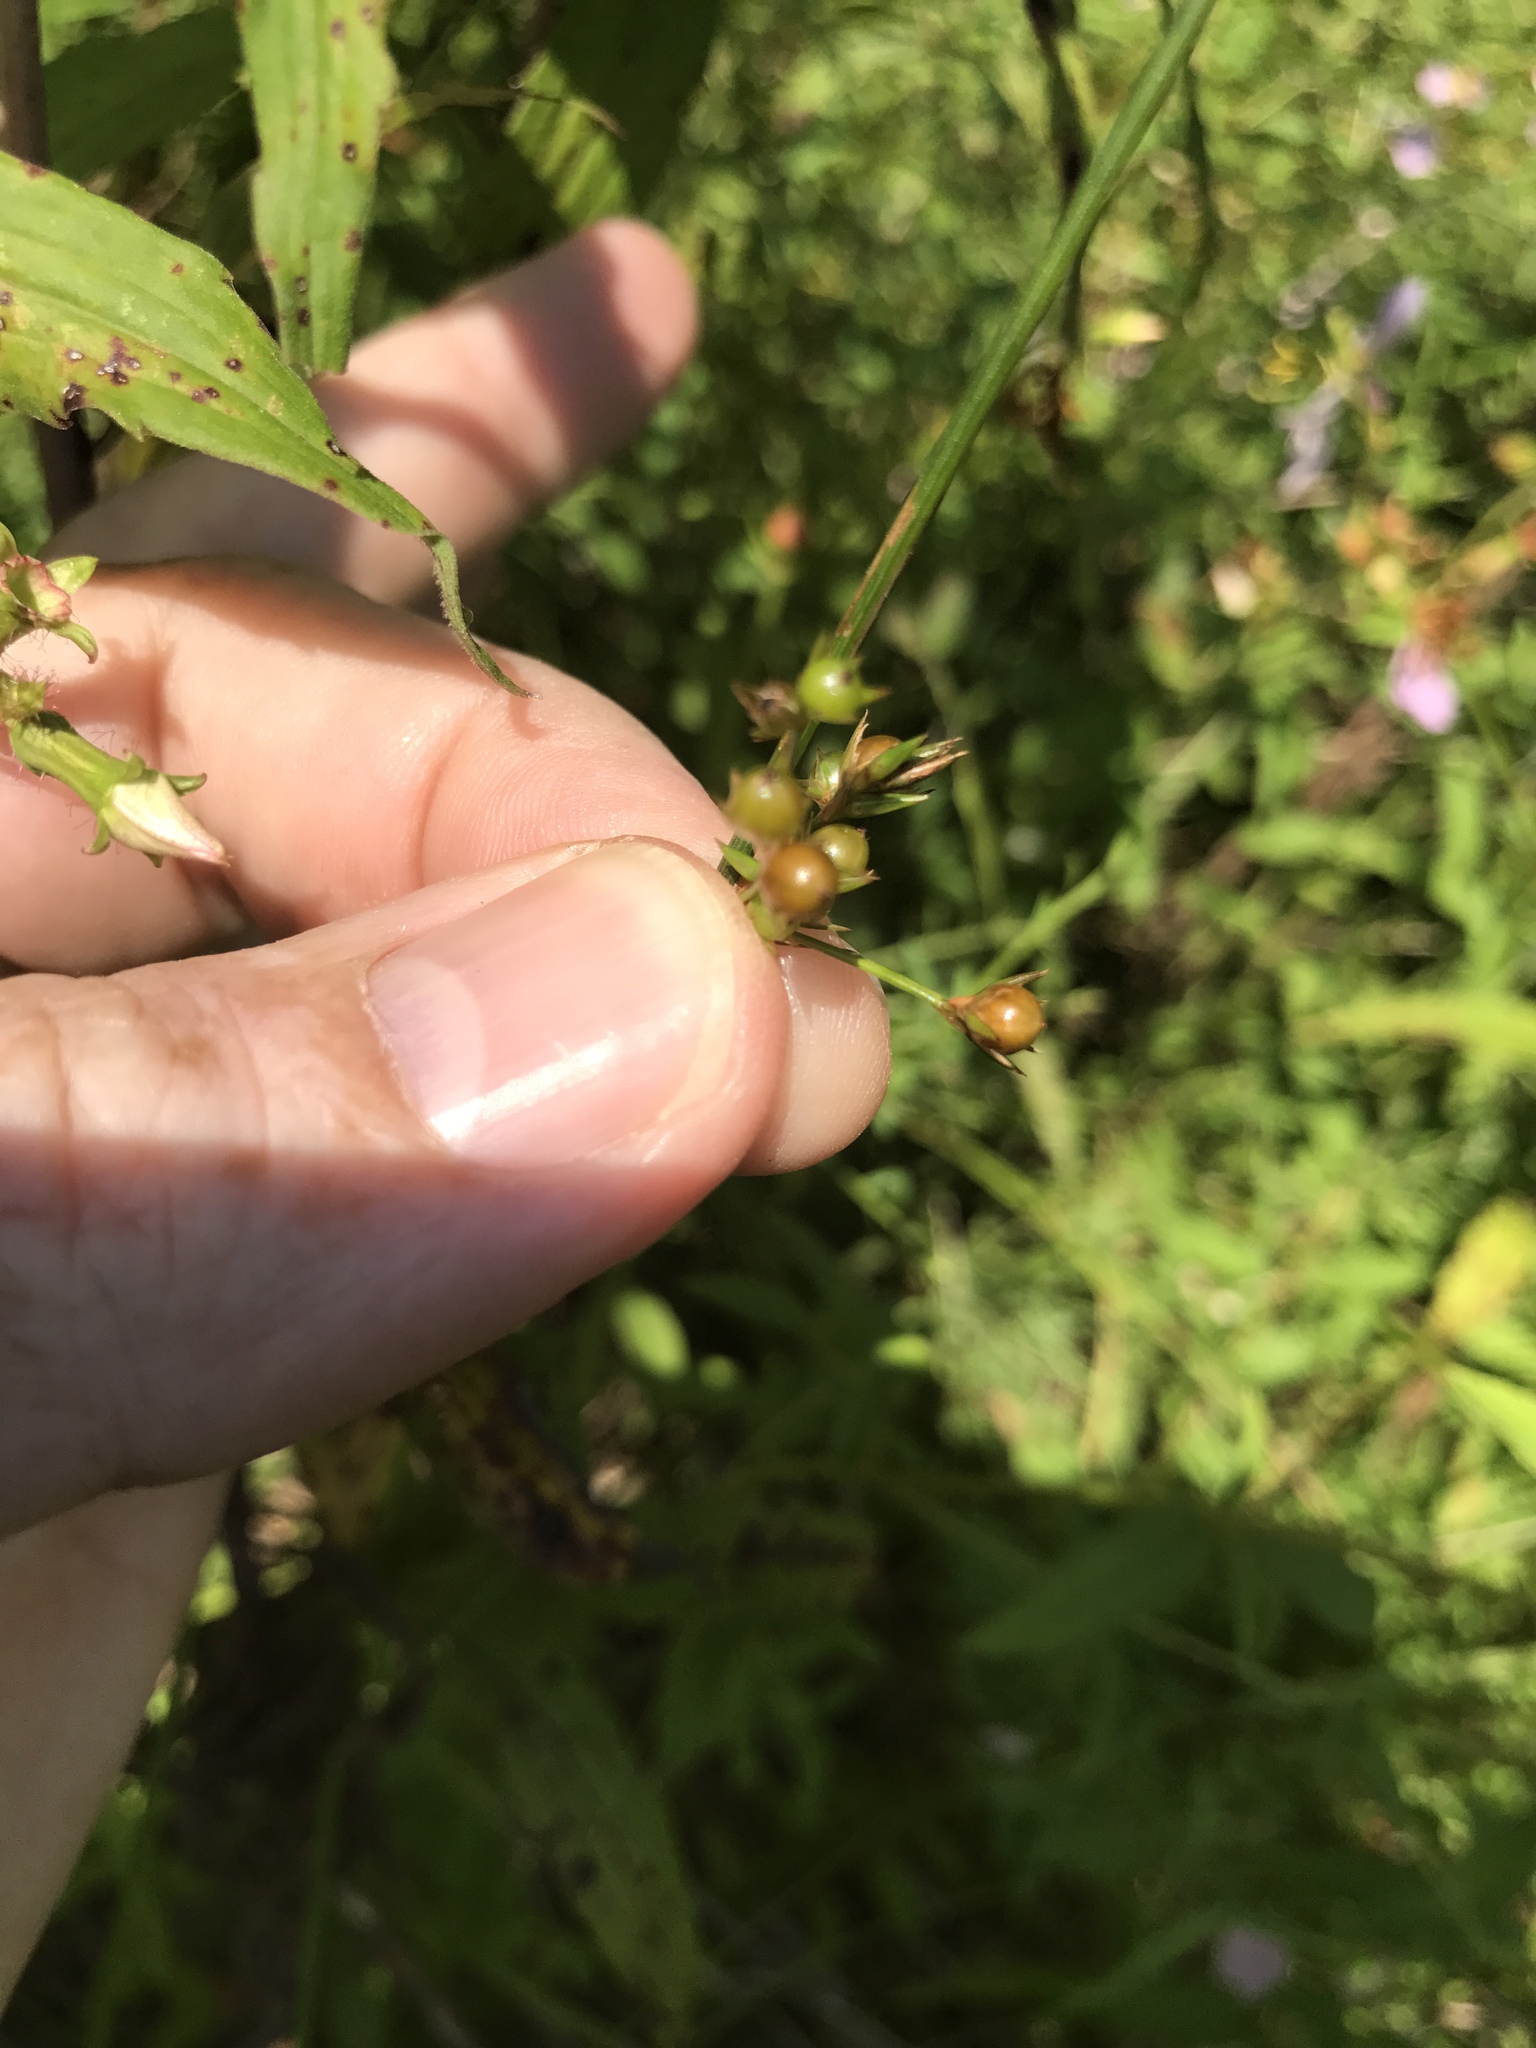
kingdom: Plantae
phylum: Tracheophyta
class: Liliopsida
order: Poales
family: Juncaceae
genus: Juncus
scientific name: Juncus coriaceus
